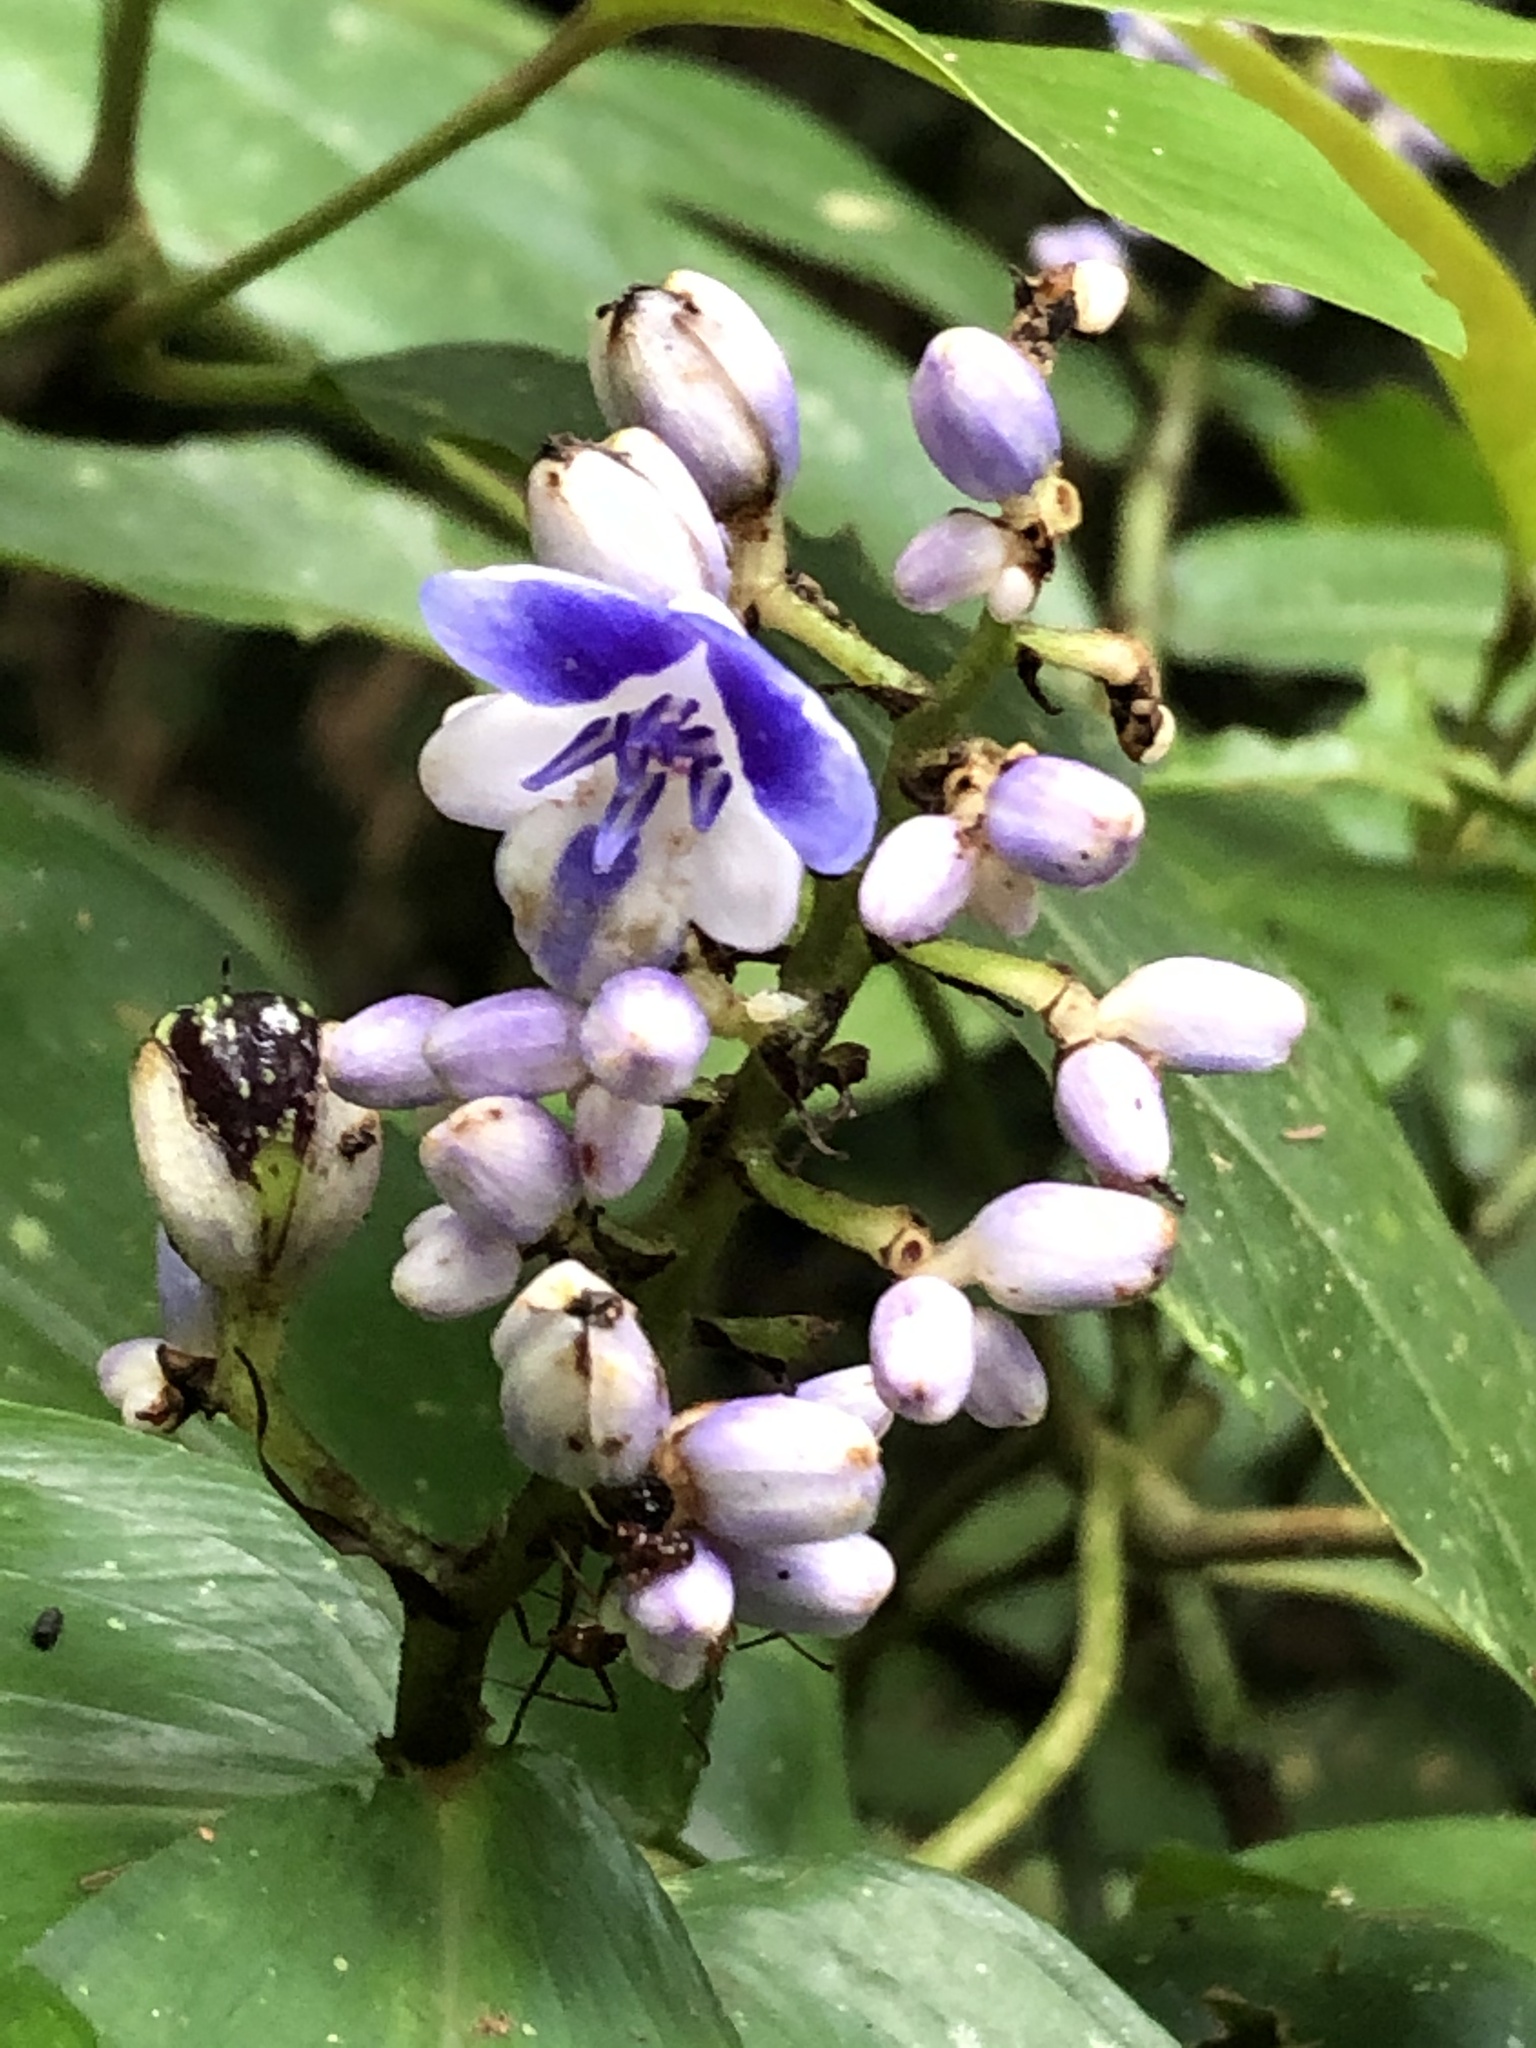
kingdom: Plantae
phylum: Tracheophyta
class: Liliopsida
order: Commelinales
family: Commelinaceae
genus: Dichorisandra
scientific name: Dichorisandra hexandra
